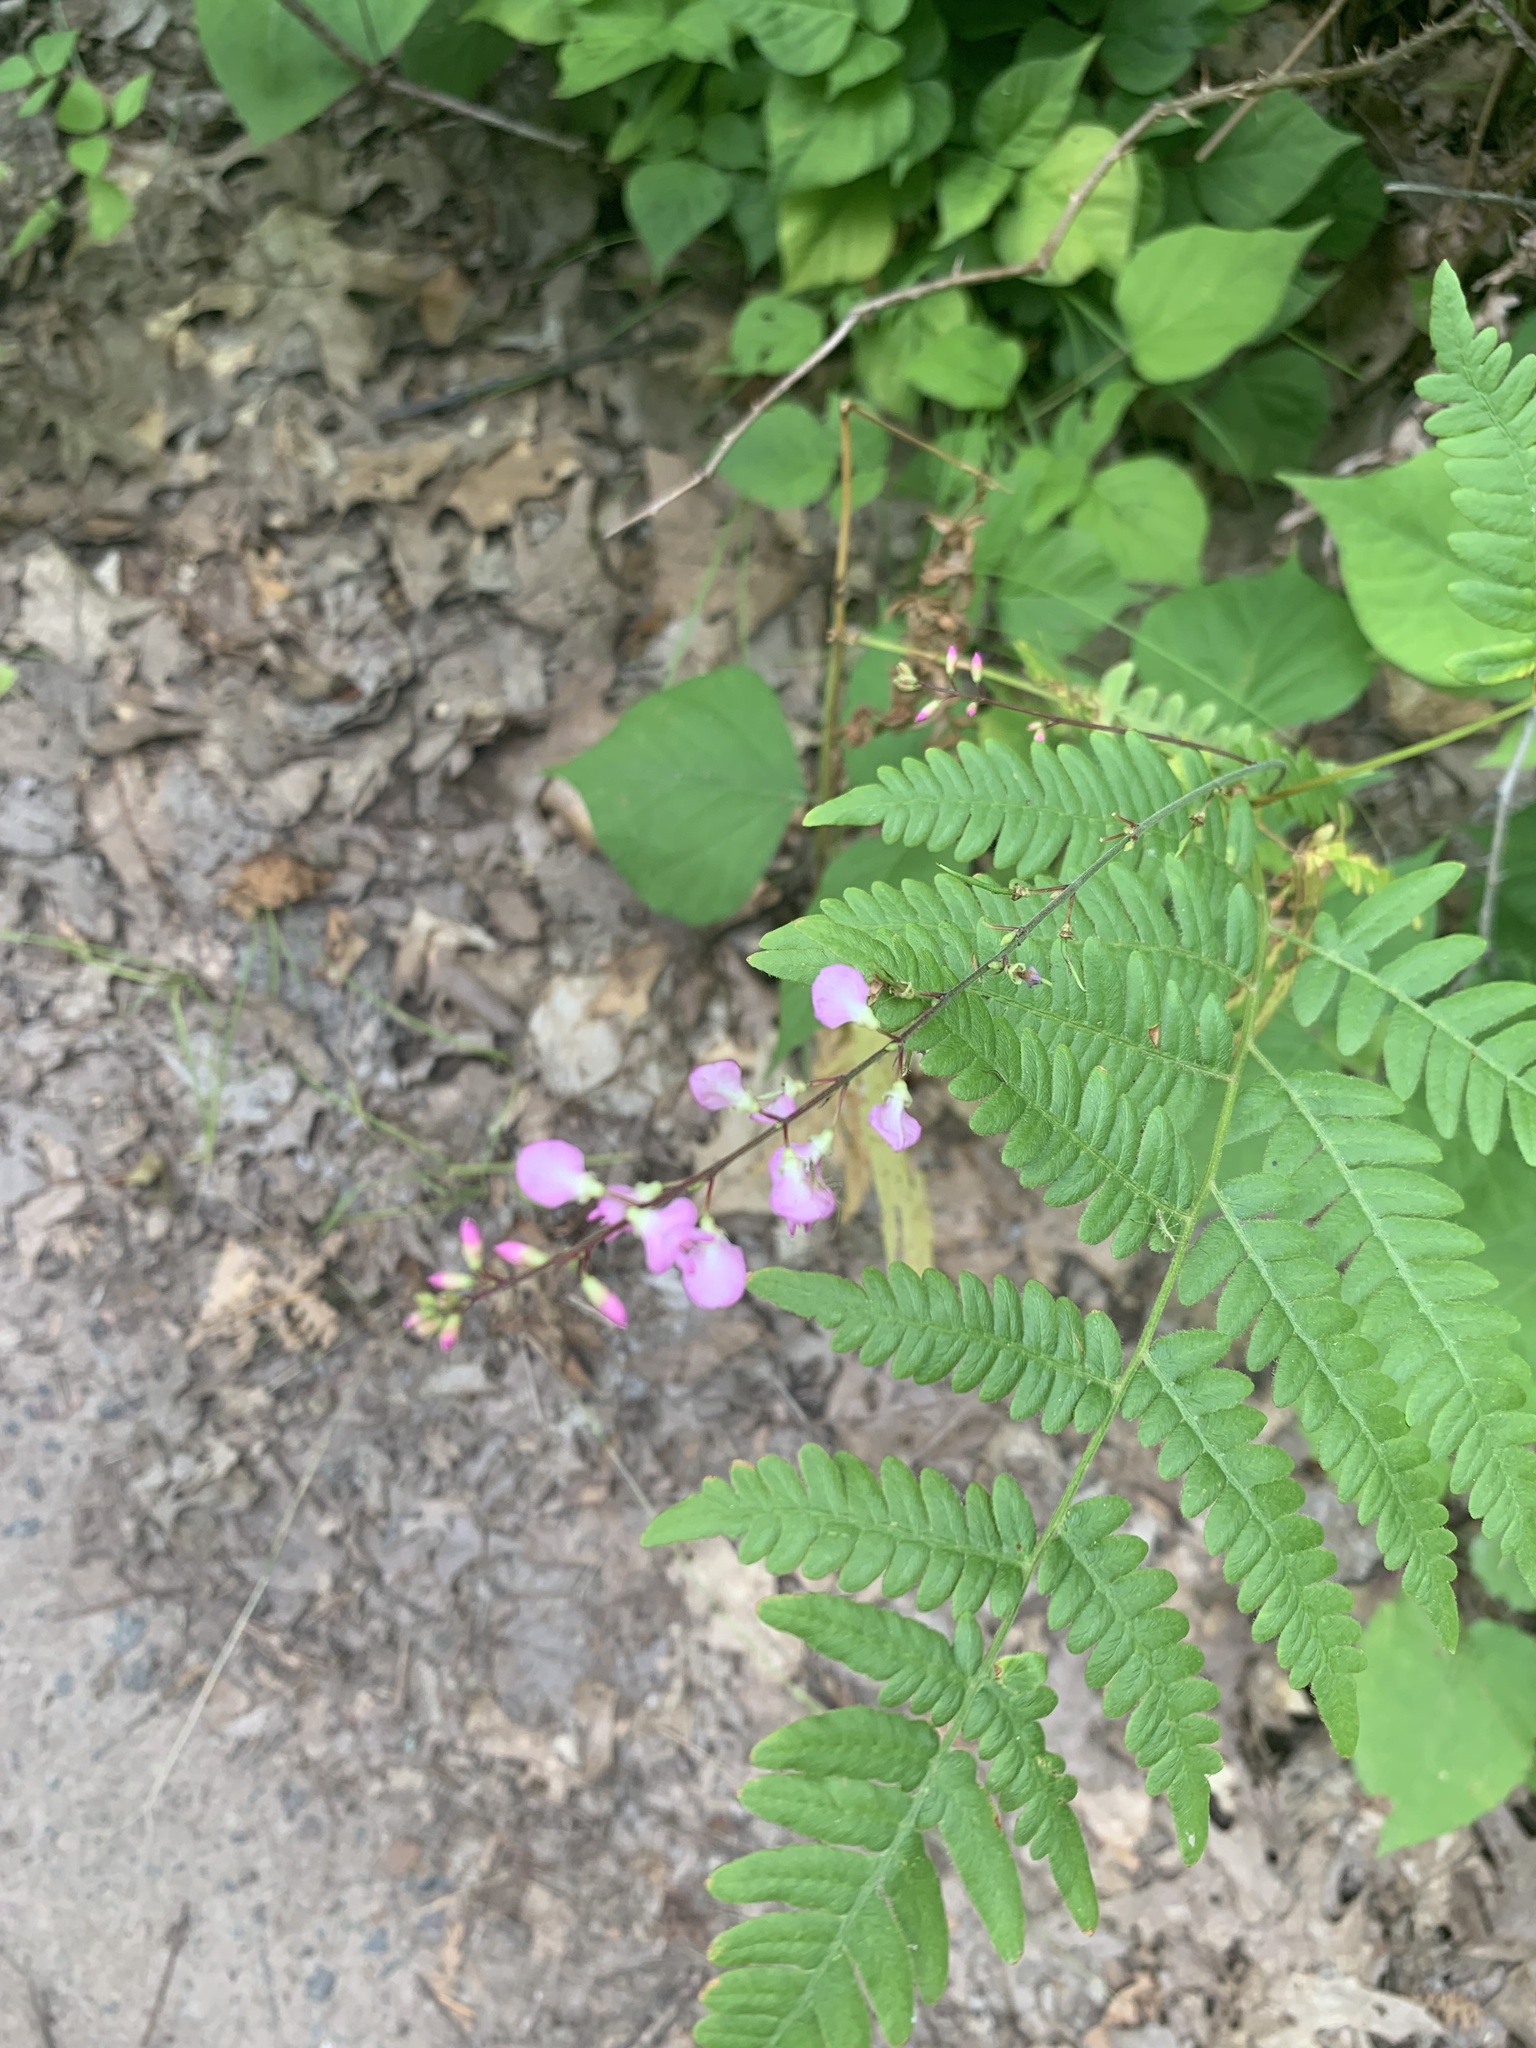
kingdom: Plantae
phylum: Tracheophyta
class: Magnoliopsida
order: Fabales
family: Fabaceae
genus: Hylodesmum
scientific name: Hylodesmum glutinosum
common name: Clustered-leaved tick-trefoil
